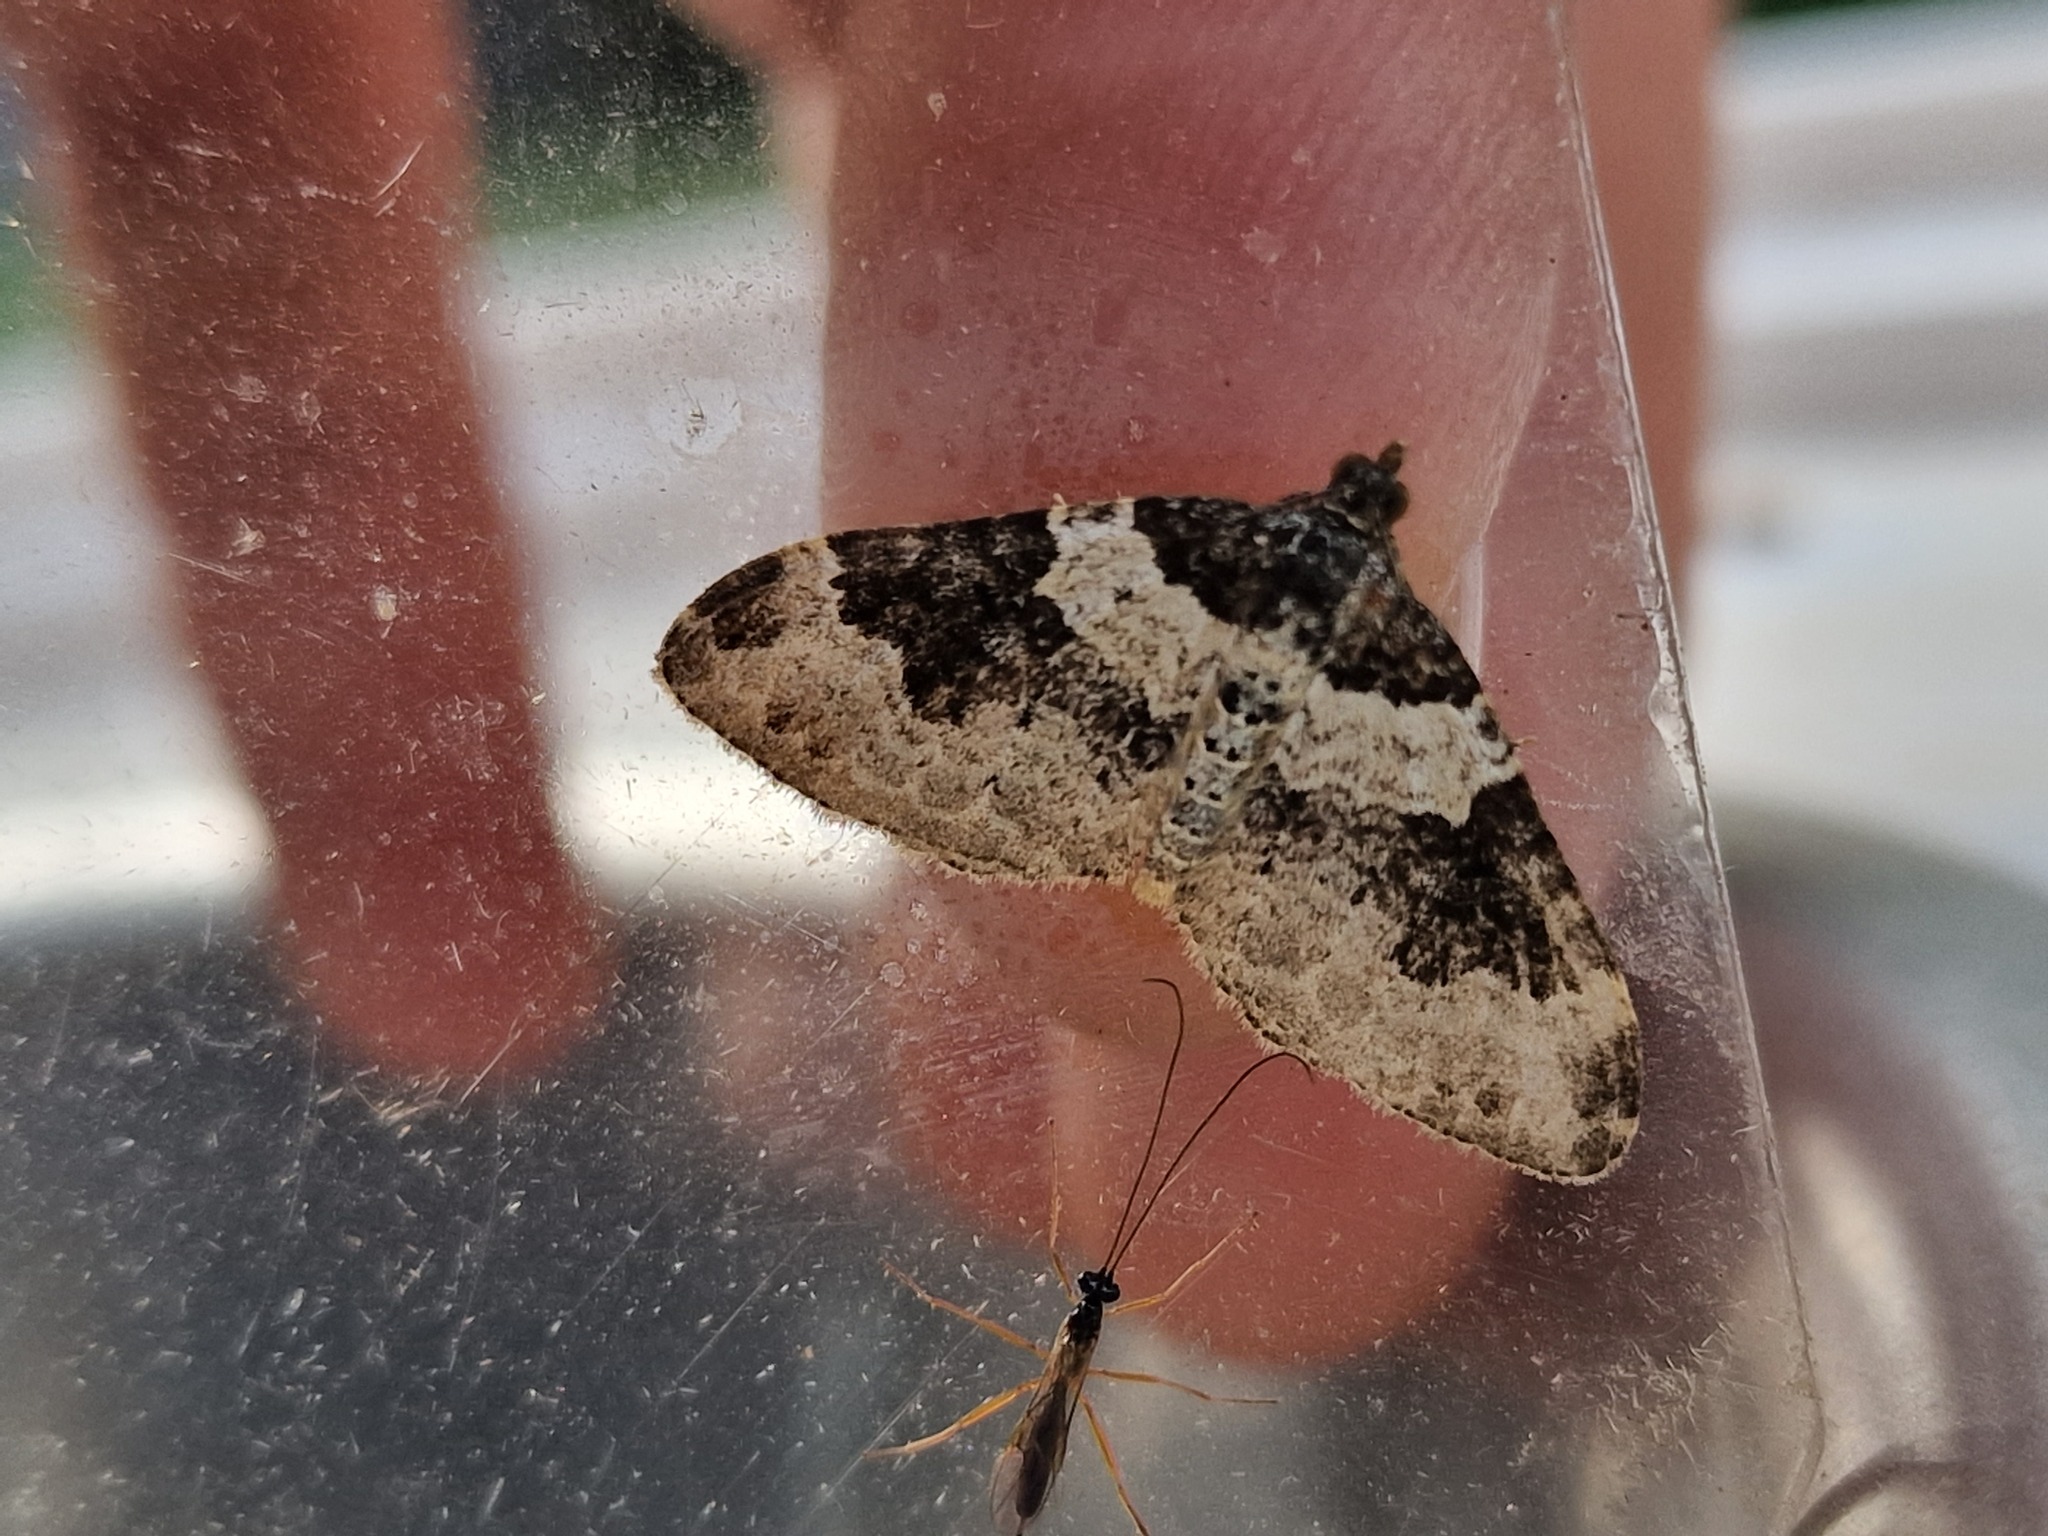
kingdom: Animalia
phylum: Arthropoda
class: Insecta
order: Lepidoptera
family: Geometridae
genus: Xanthorhoe
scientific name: Xanthorhoe fluctuata
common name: Garden carpet
